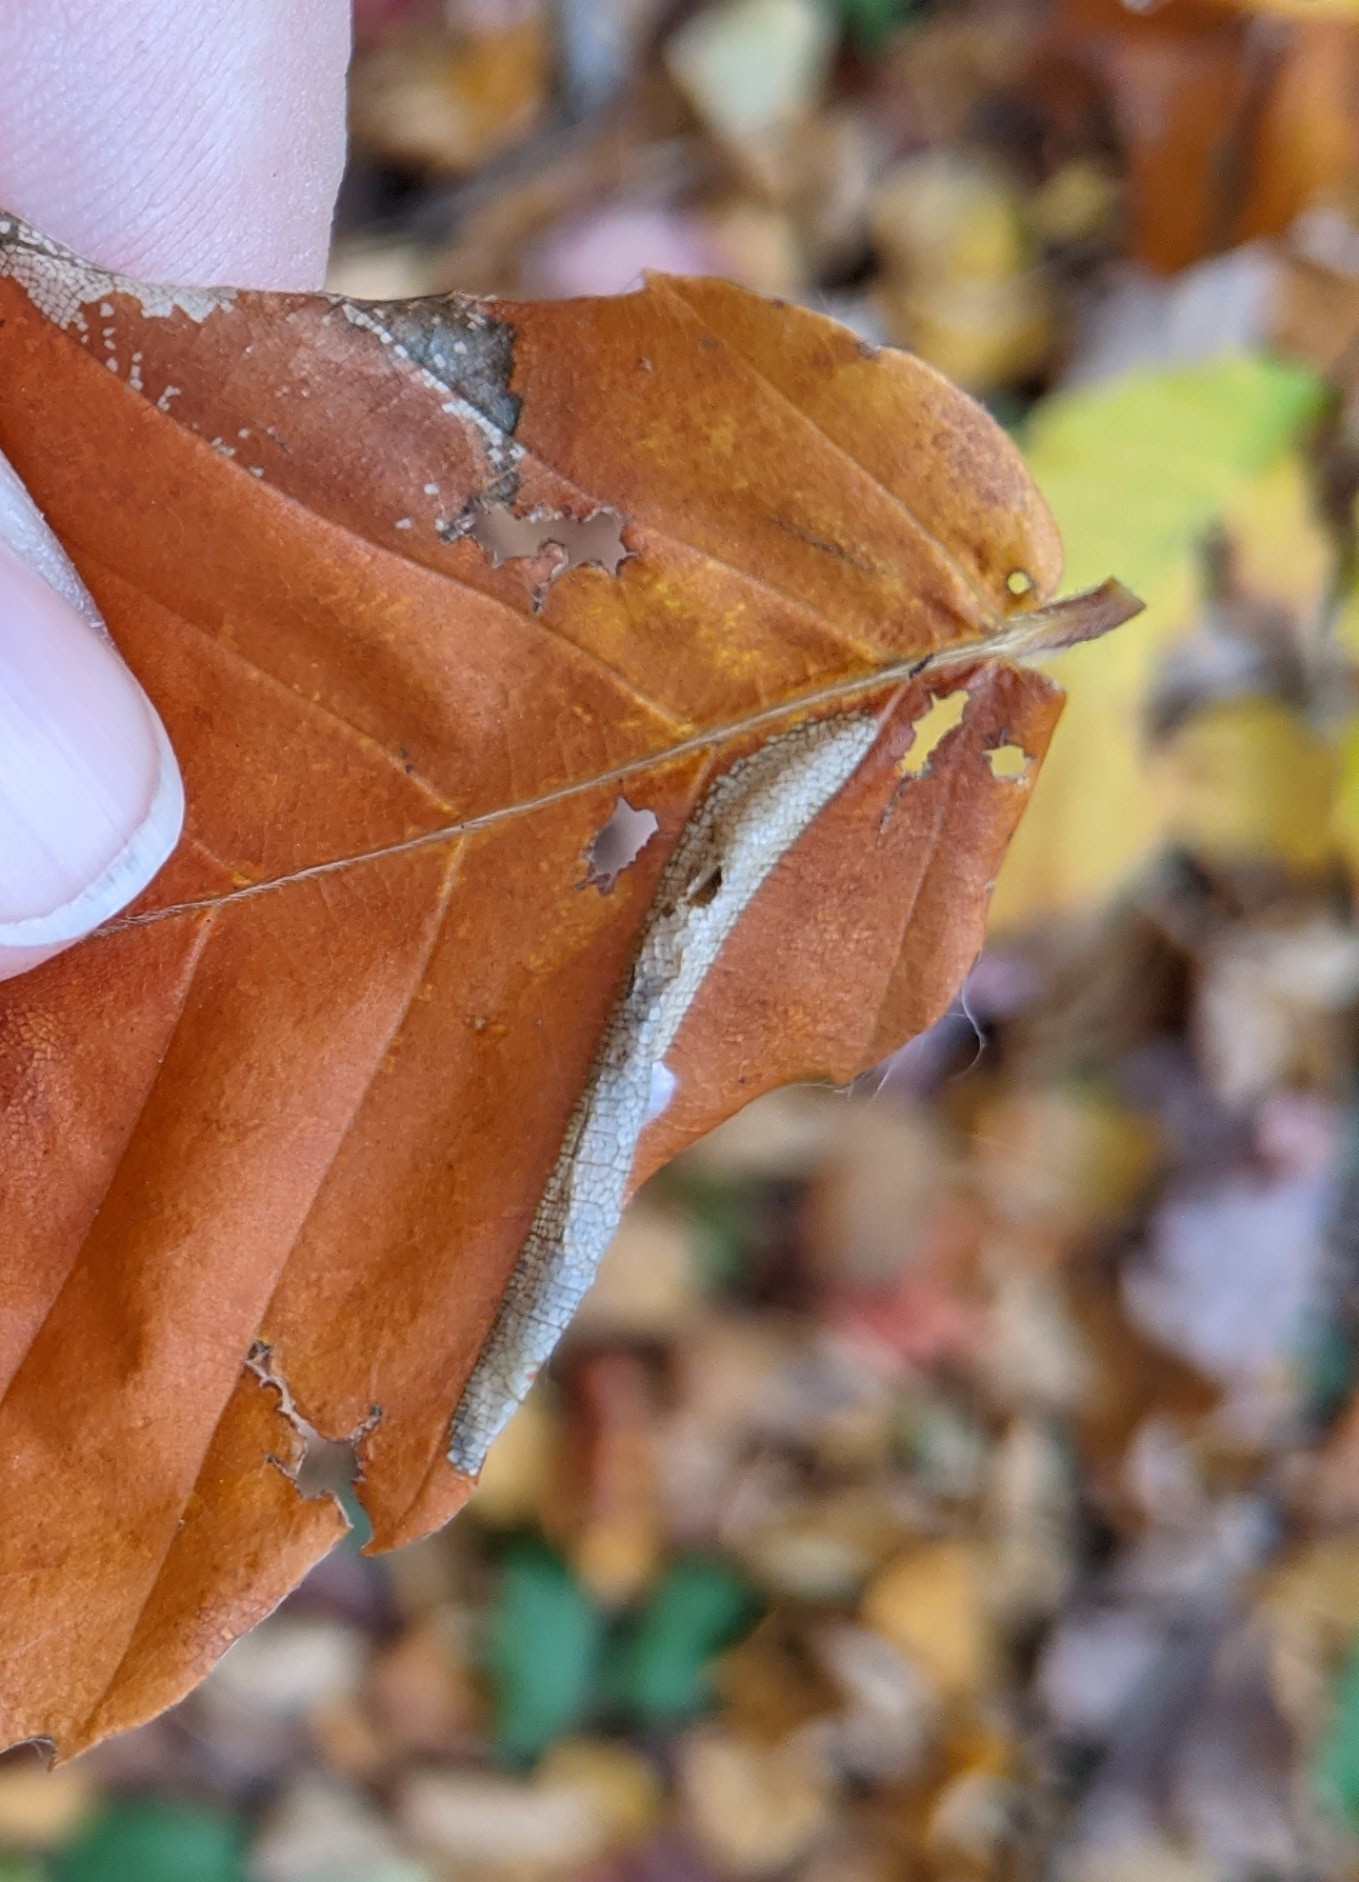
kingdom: Animalia
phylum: Arthropoda
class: Insecta
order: Lepidoptera
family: Gracillariidae
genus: Phyllonorycter
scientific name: Phyllonorycter maestingella
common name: Beech midget
